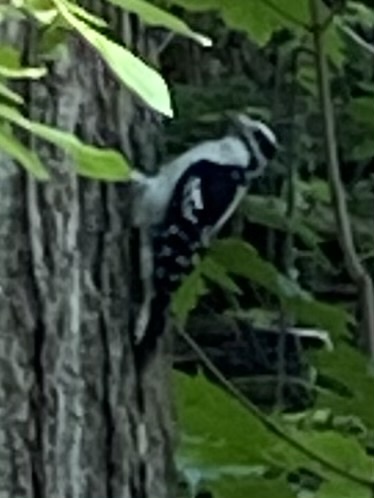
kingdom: Animalia
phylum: Chordata
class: Aves
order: Piciformes
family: Picidae
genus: Dryobates
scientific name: Dryobates pubescens
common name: Downy woodpecker
